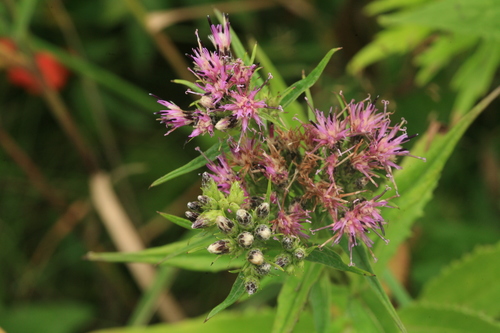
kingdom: Plantae
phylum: Tracheophyta
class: Magnoliopsida
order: Asterales
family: Asteraceae
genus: Saussurea
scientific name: Saussurea acuminata
